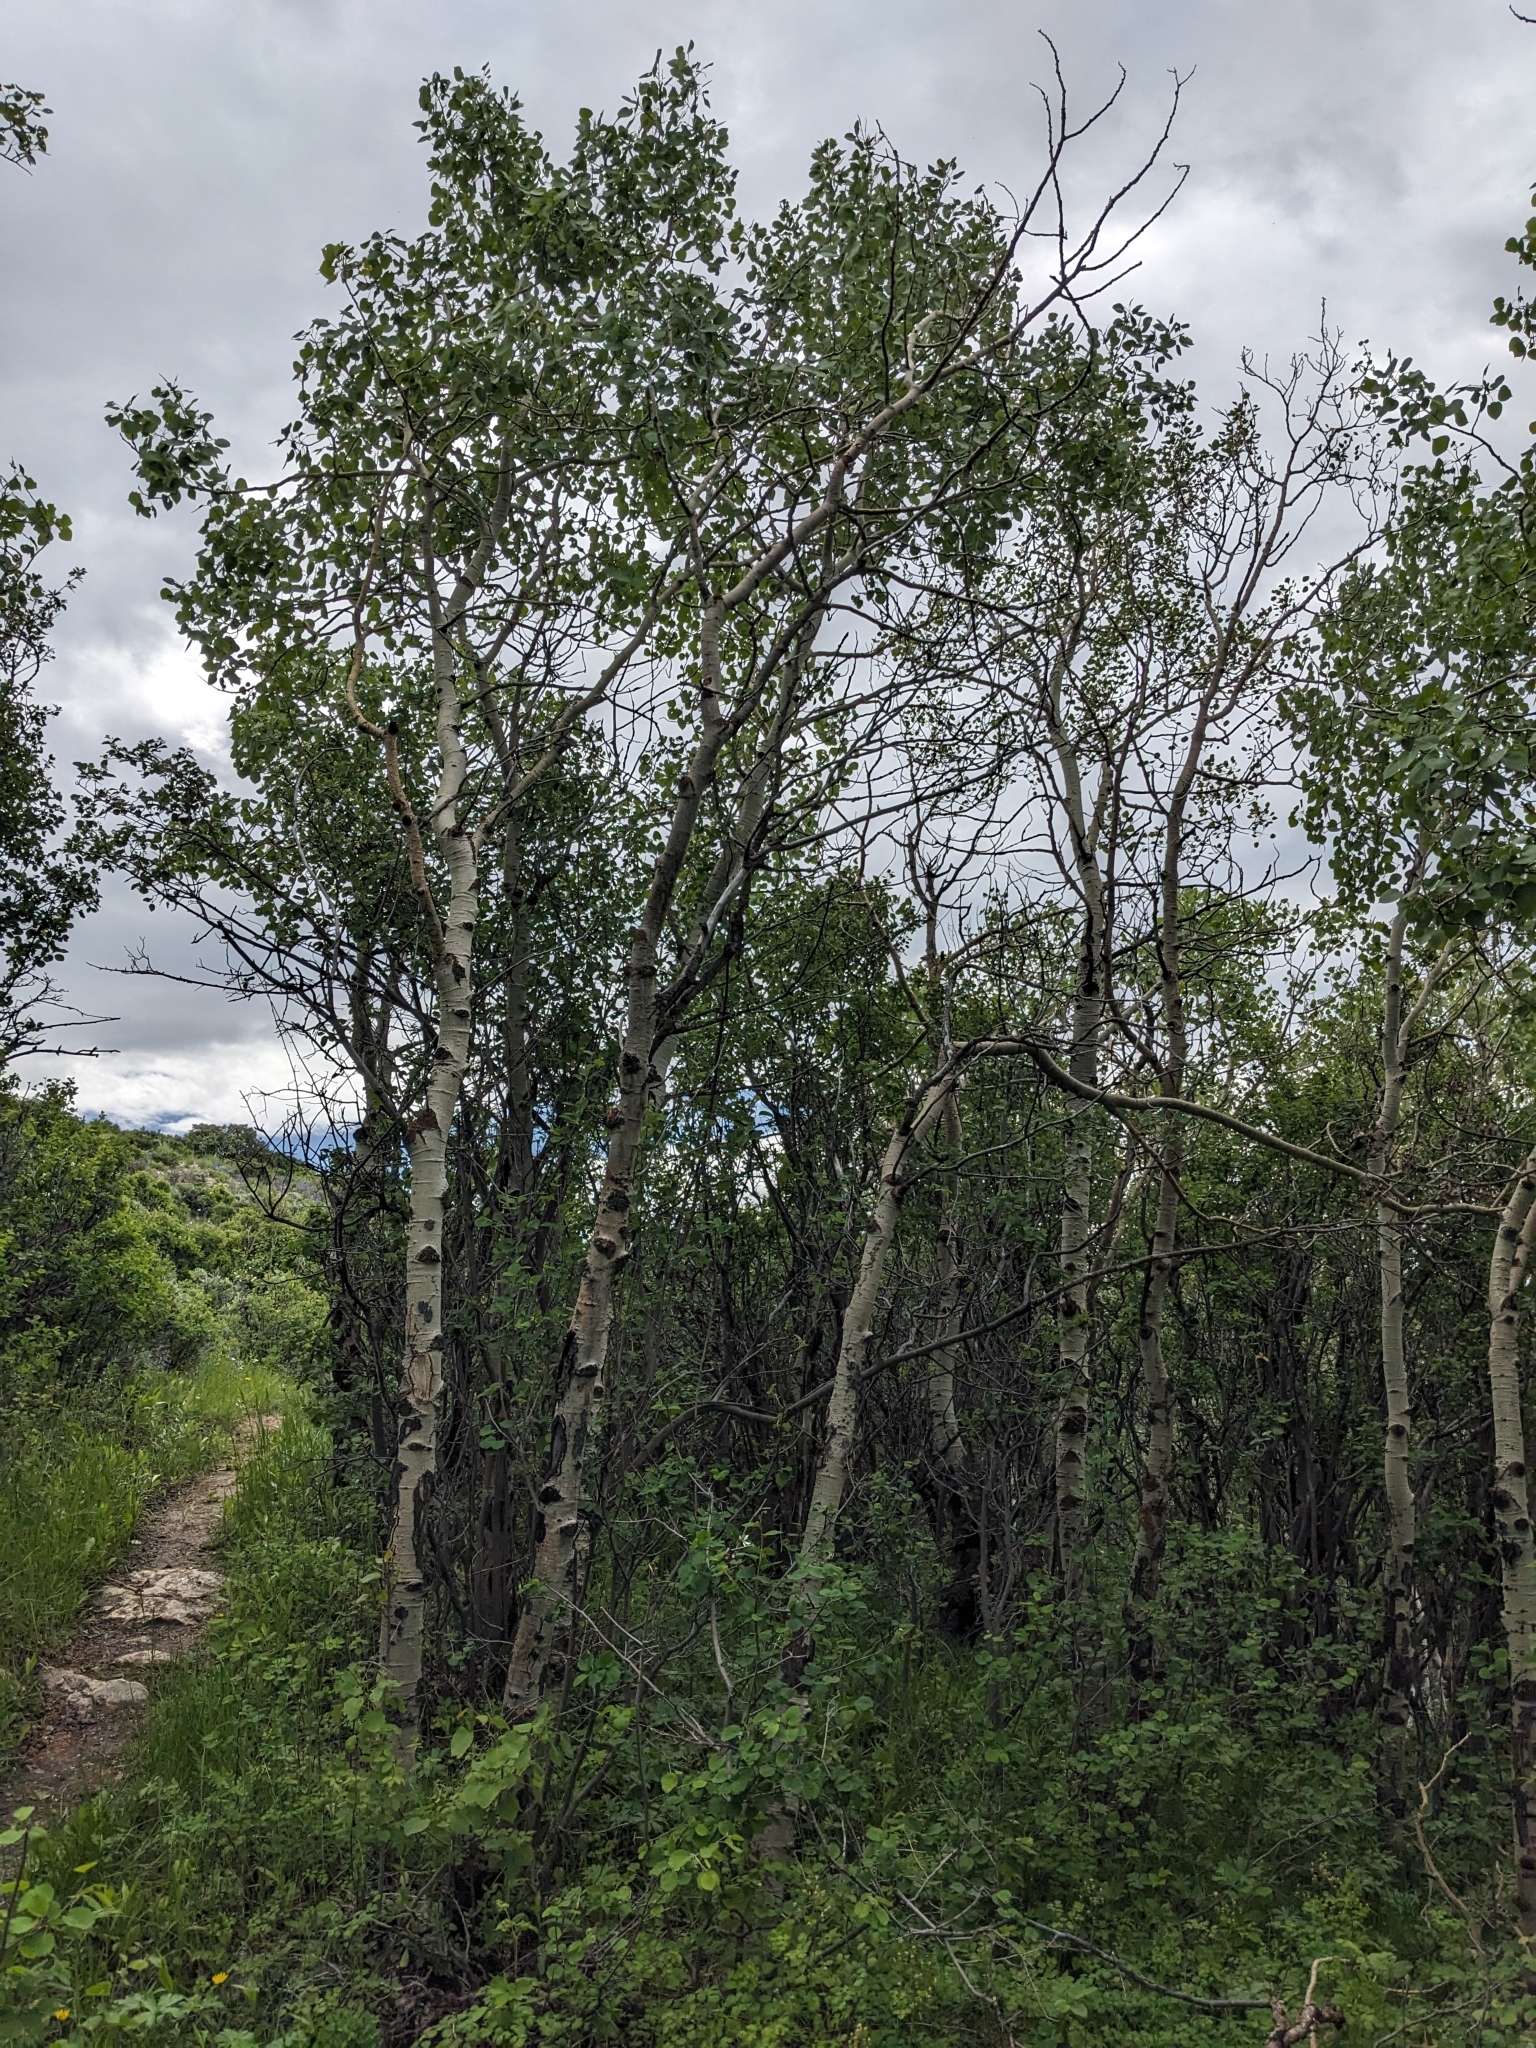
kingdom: Plantae
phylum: Tracheophyta
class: Magnoliopsida
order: Malpighiales
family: Salicaceae
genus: Populus
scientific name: Populus tremuloides
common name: Quaking aspen
